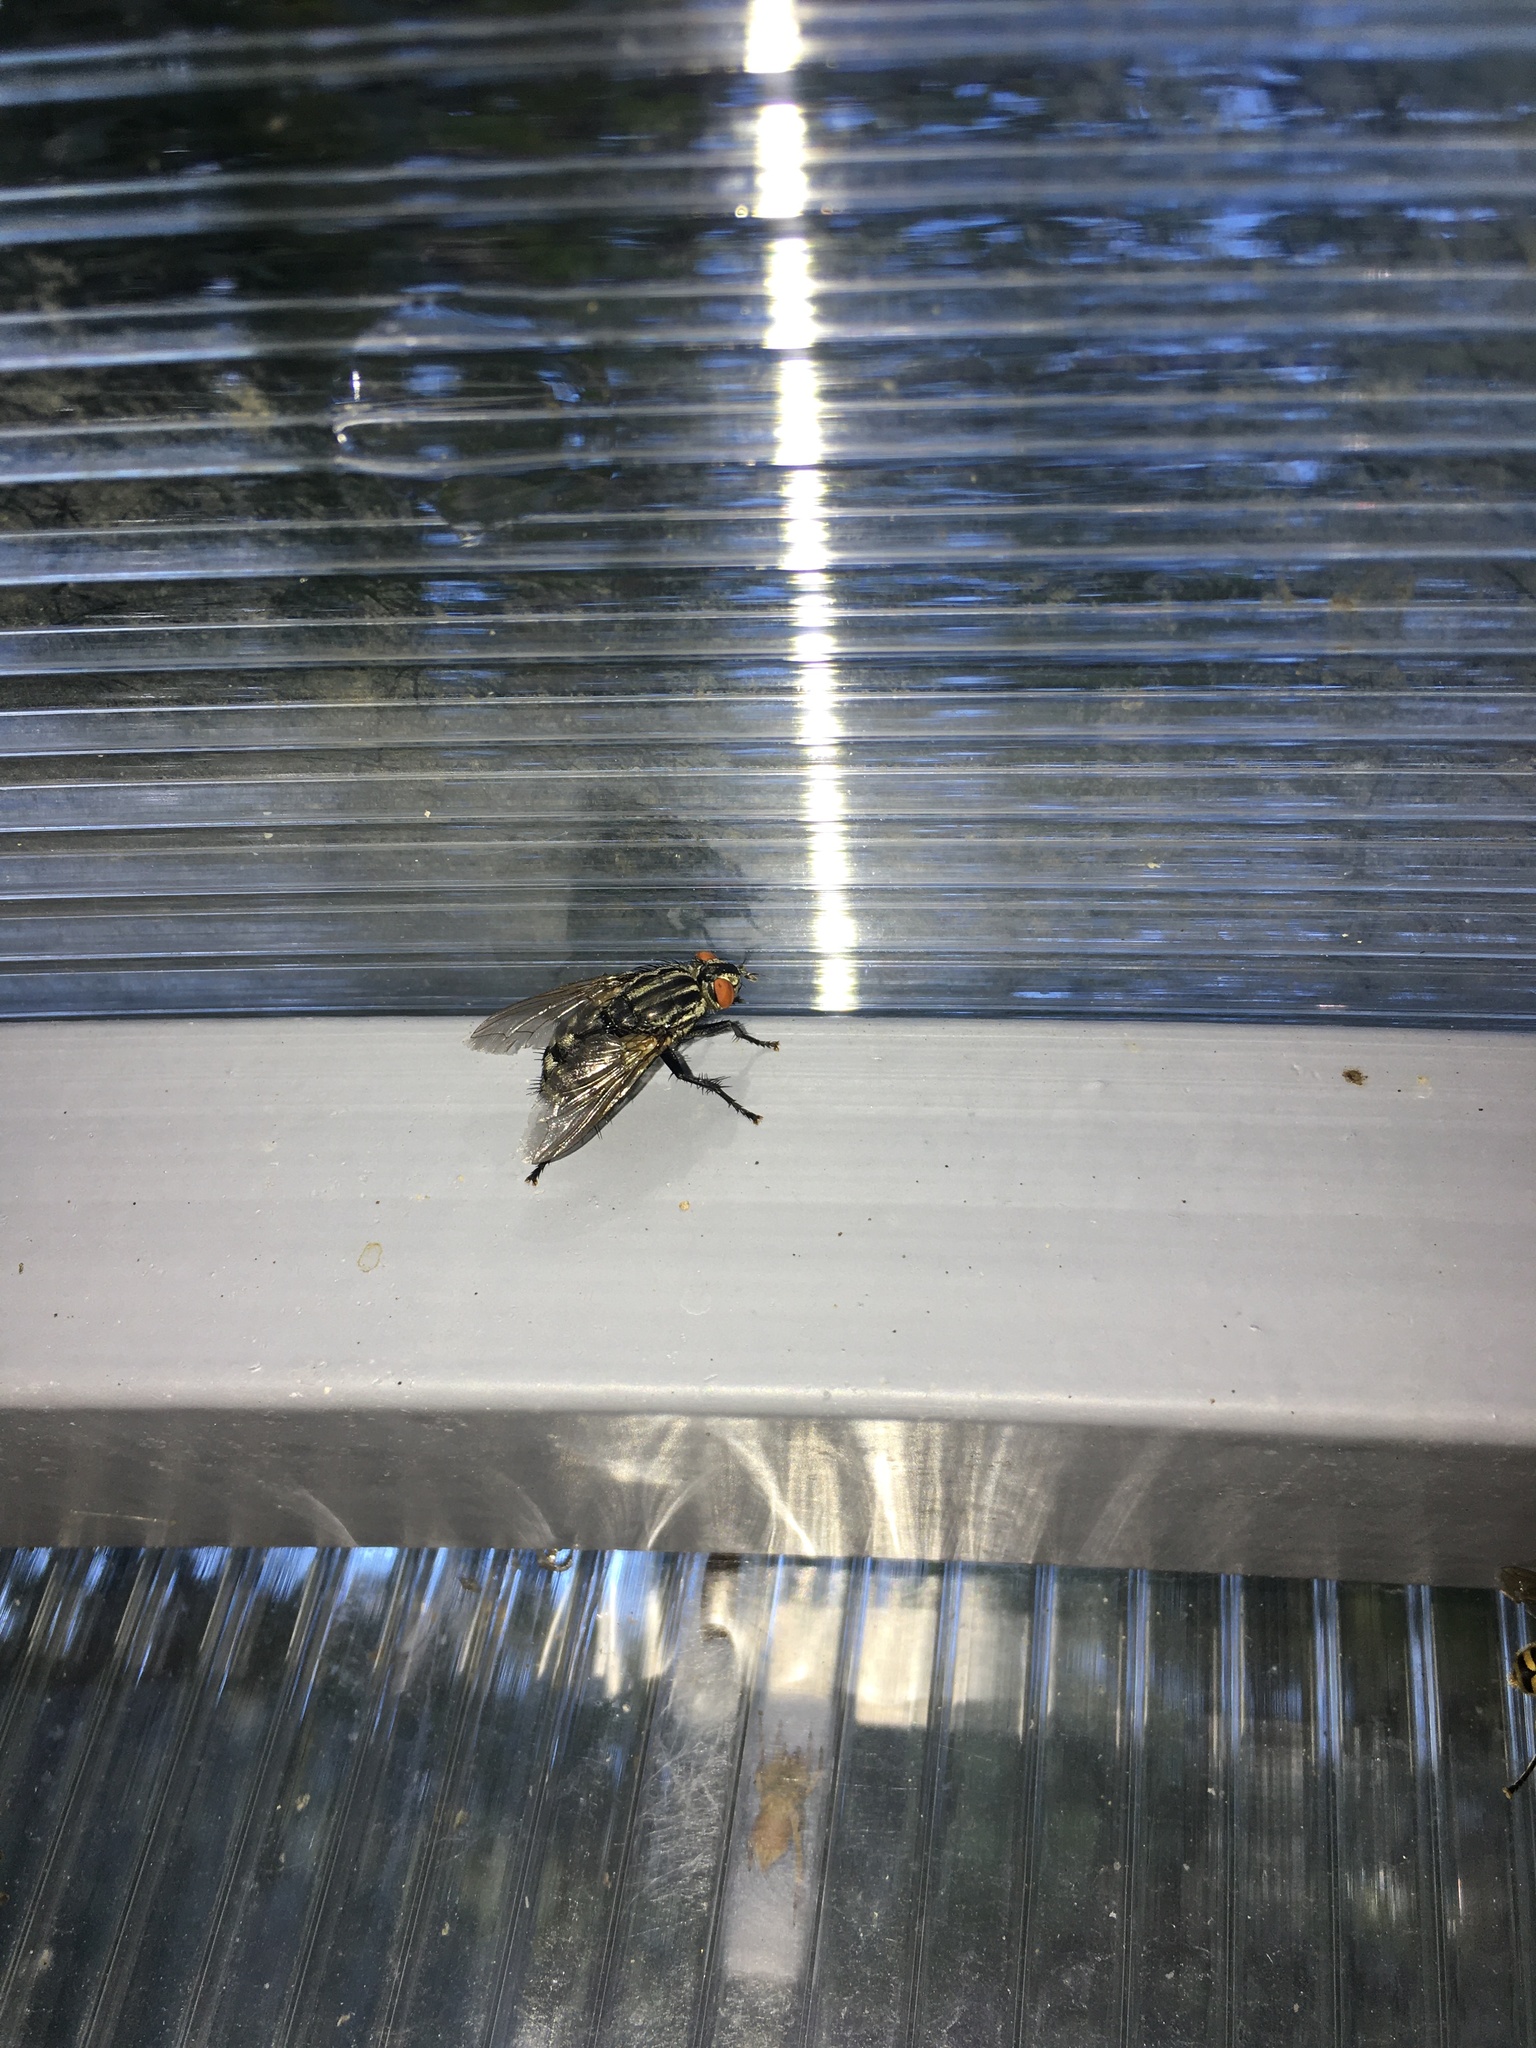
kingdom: Animalia
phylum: Arthropoda
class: Insecta
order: Diptera
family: Sarcophagidae
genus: Sarcophaga
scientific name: Sarcophaga
